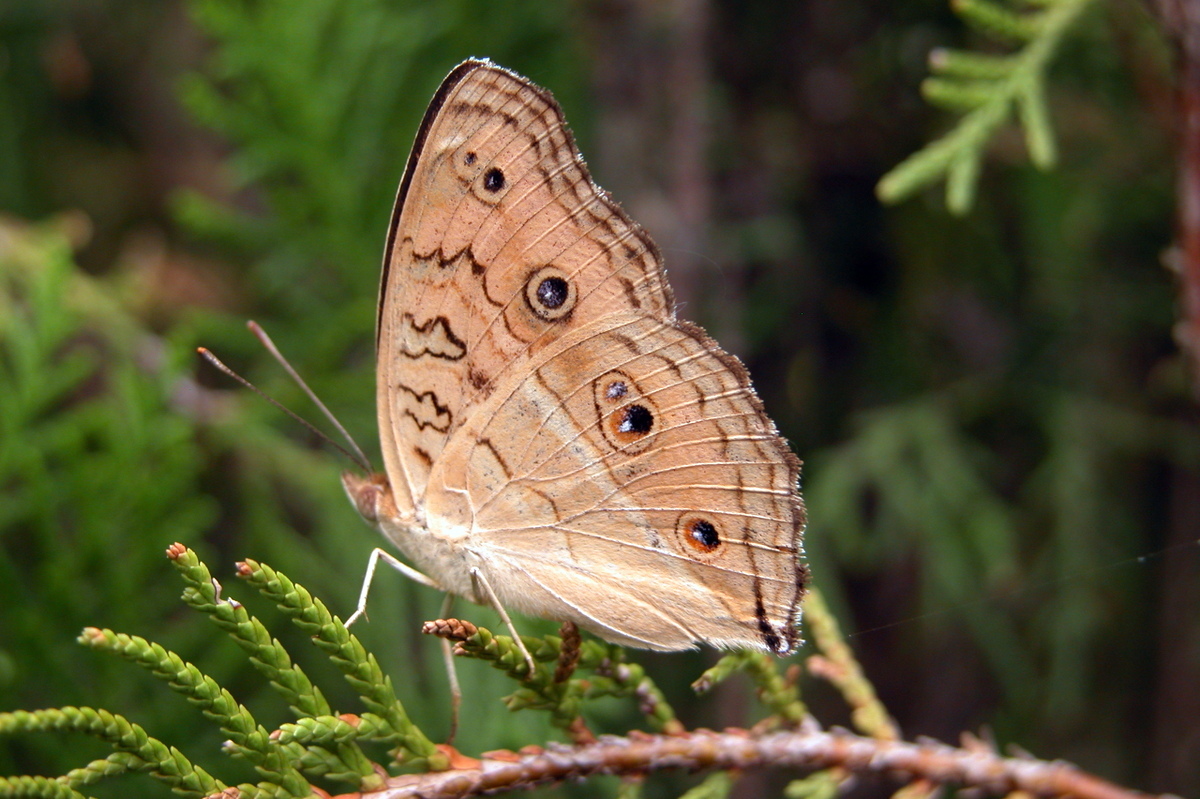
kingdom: Animalia
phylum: Arthropoda
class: Insecta
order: Lepidoptera
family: Nymphalidae
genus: Junonia
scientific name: Junonia almana
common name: Peacock pansy
